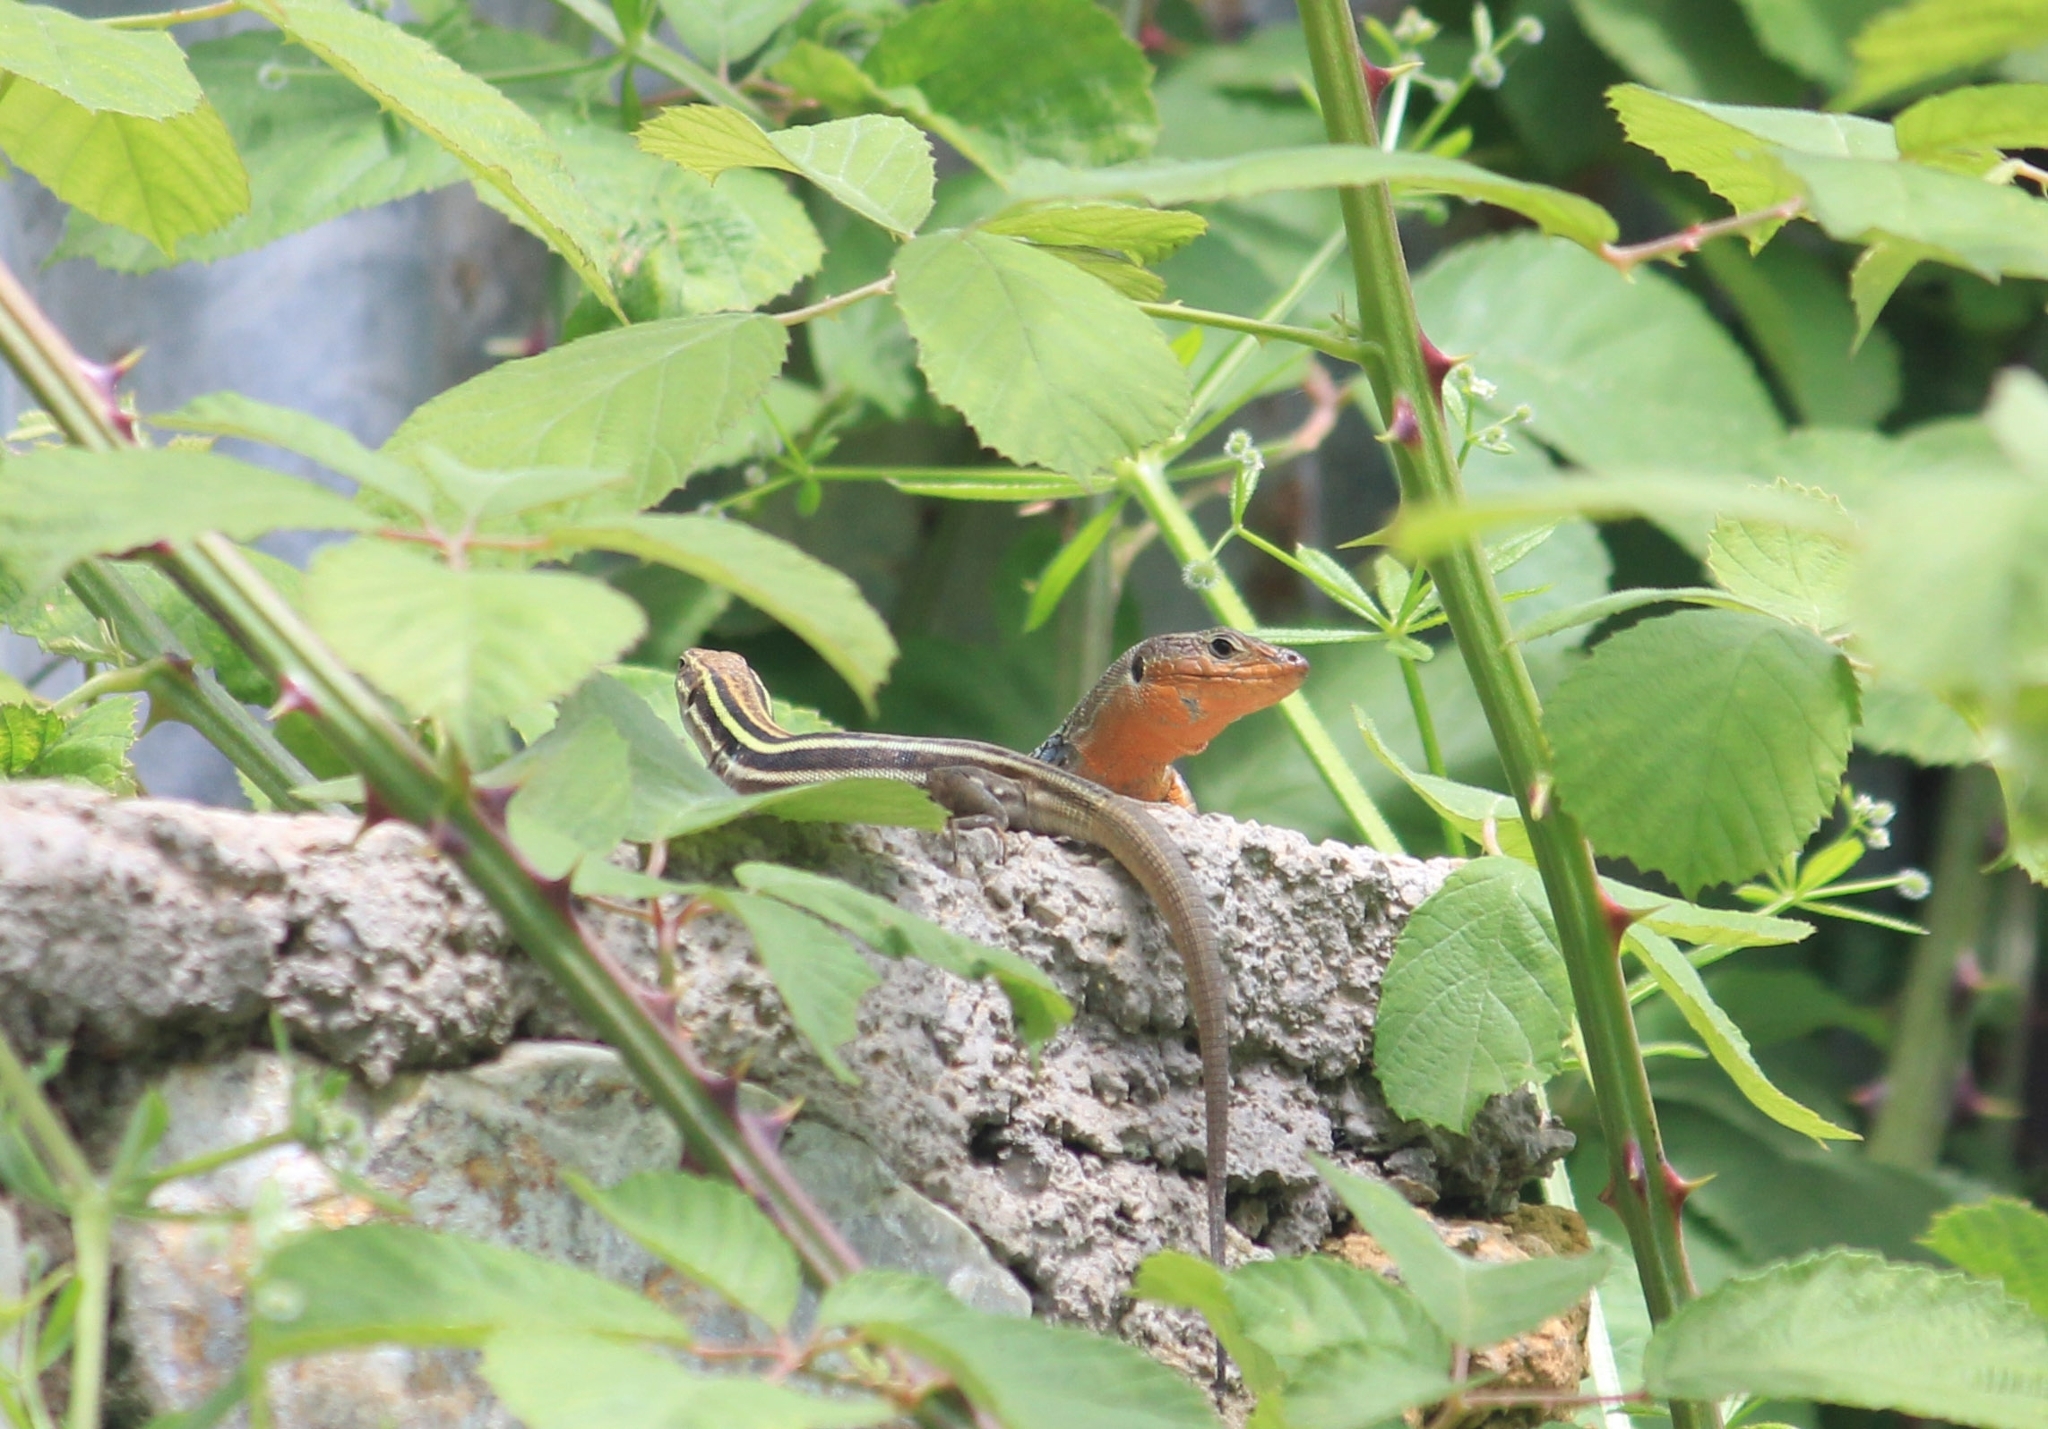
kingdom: Animalia
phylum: Chordata
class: Squamata
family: Lacertidae
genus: Podarcis
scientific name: Podarcis peloponnesiacus
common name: Peloponnese wall lizard
